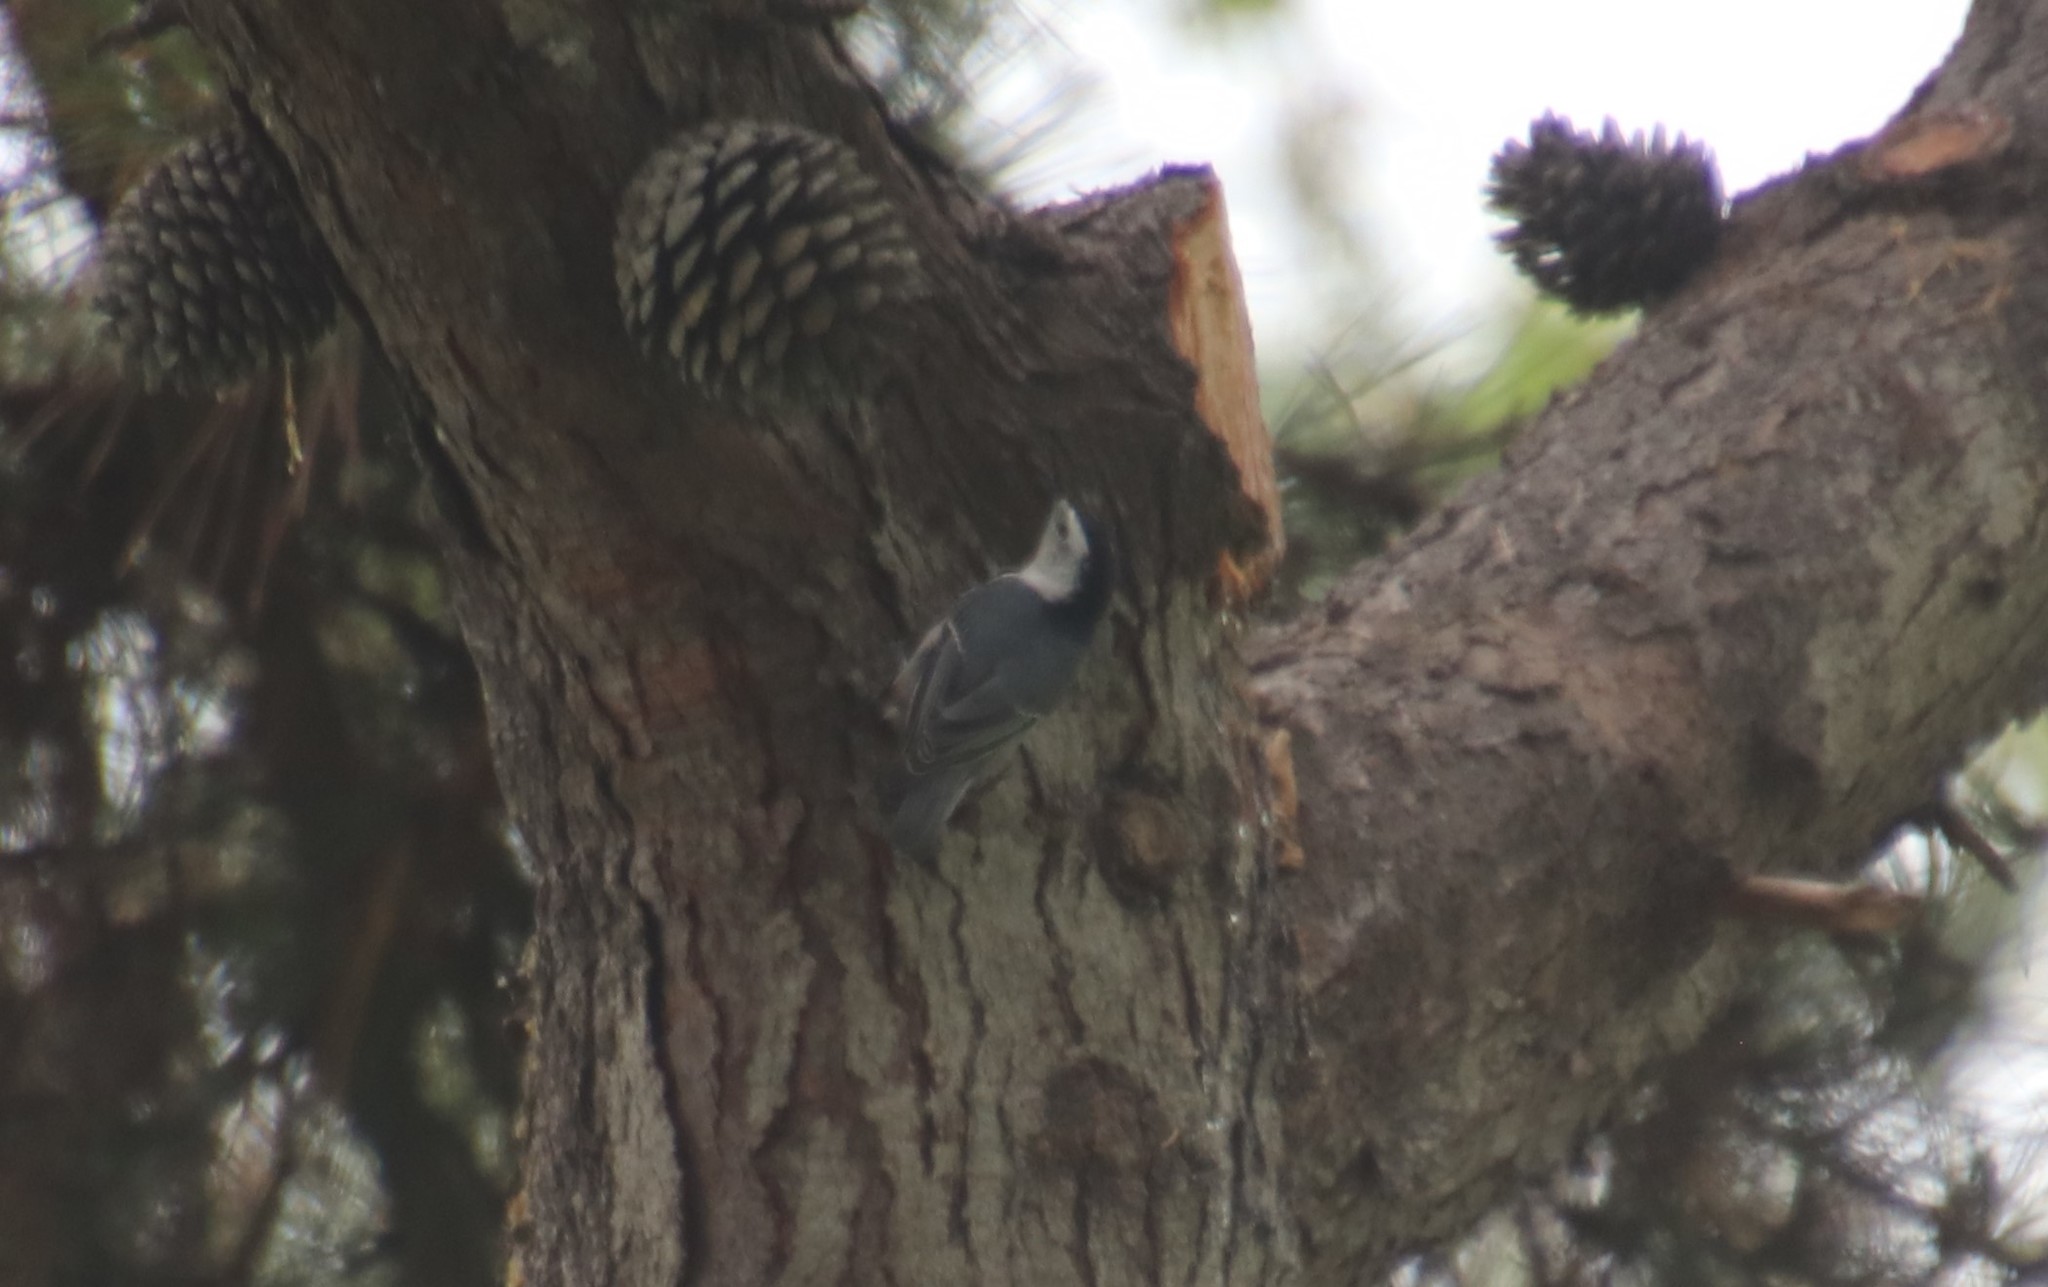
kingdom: Animalia
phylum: Chordata
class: Aves
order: Passeriformes
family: Sittidae
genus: Sitta
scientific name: Sitta carolinensis
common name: White-breasted nuthatch
